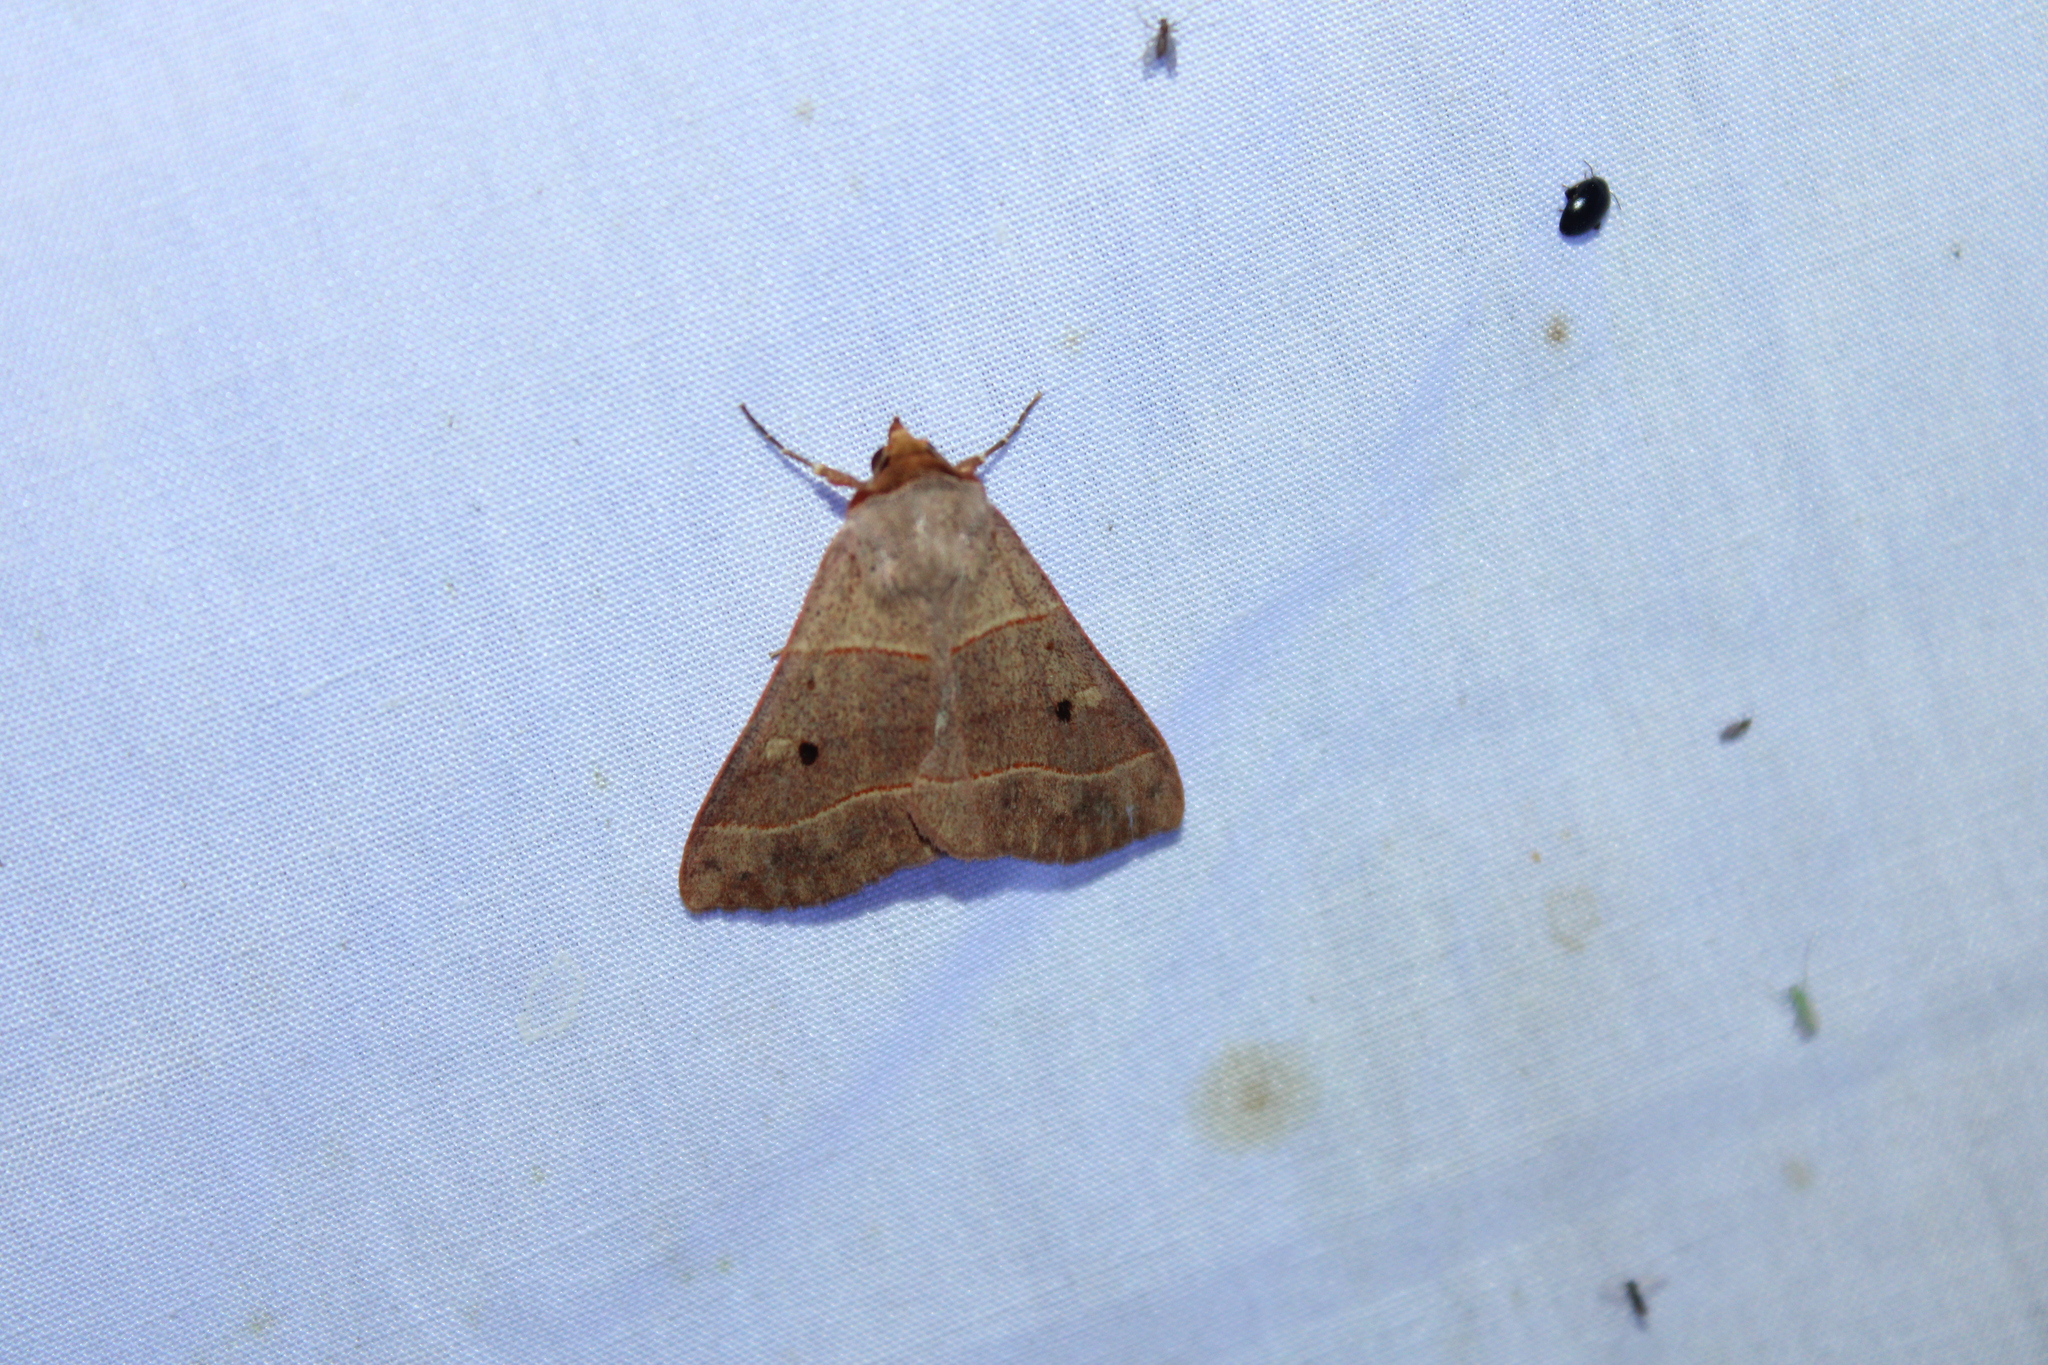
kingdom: Animalia
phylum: Arthropoda
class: Insecta
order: Lepidoptera
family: Erebidae
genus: Panopoda
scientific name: Panopoda rufimargo
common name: Red-lined panopoda moth
